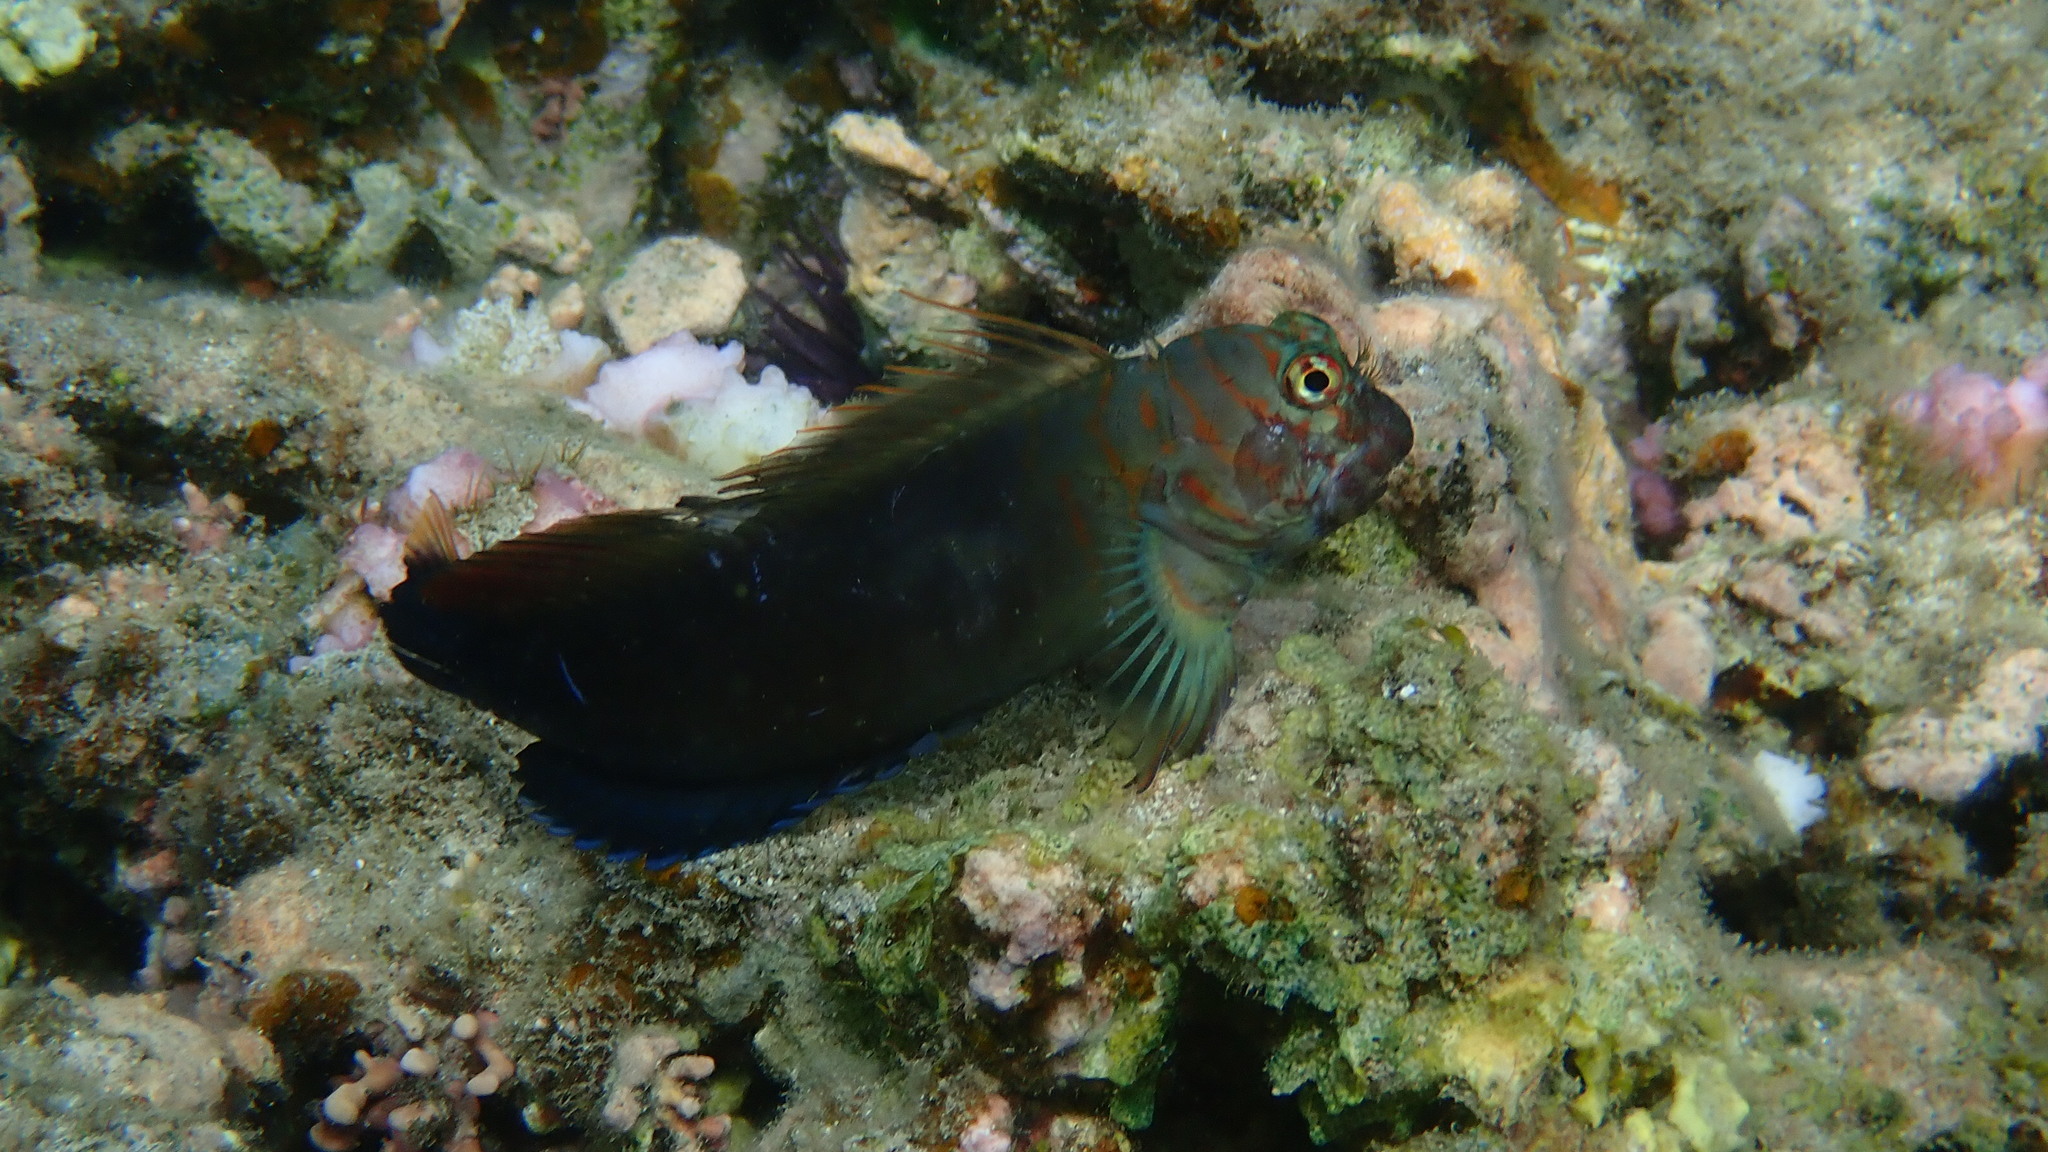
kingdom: Animalia
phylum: Chordata
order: Perciformes
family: Blenniidae
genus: Cirripectes
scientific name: Cirripectes castaneus
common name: Chestnut blenny
